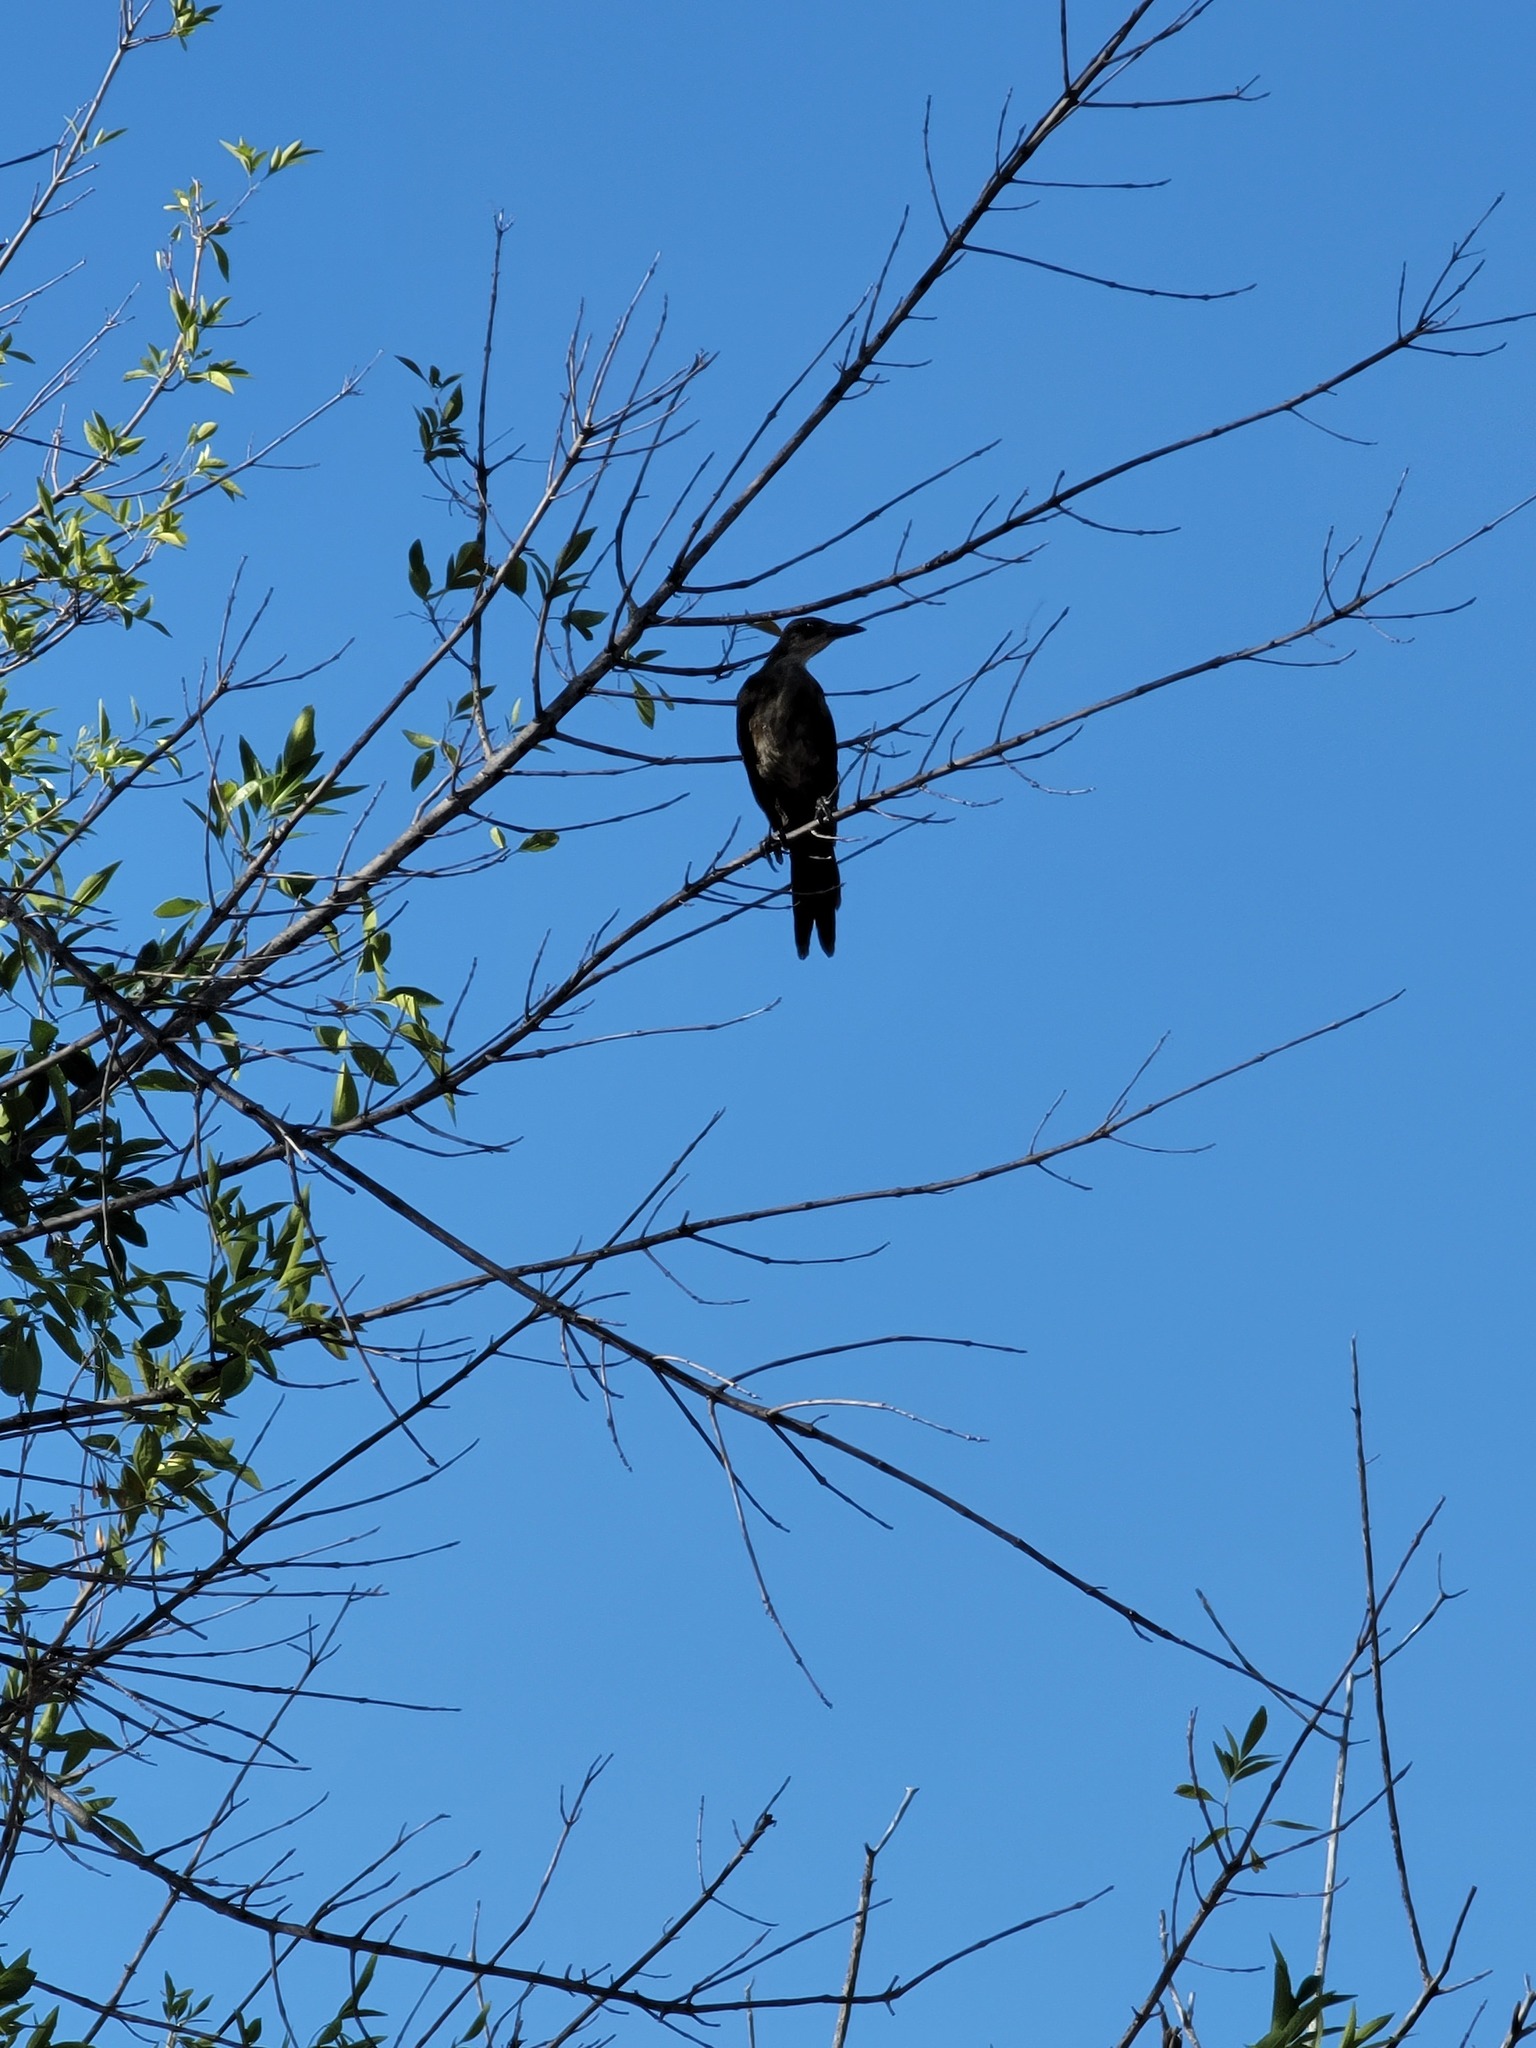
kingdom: Animalia
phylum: Chordata
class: Aves
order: Passeriformes
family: Icteridae
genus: Quiscalus
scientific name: Quiscalus mexicanus
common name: Great-tailed grackle
